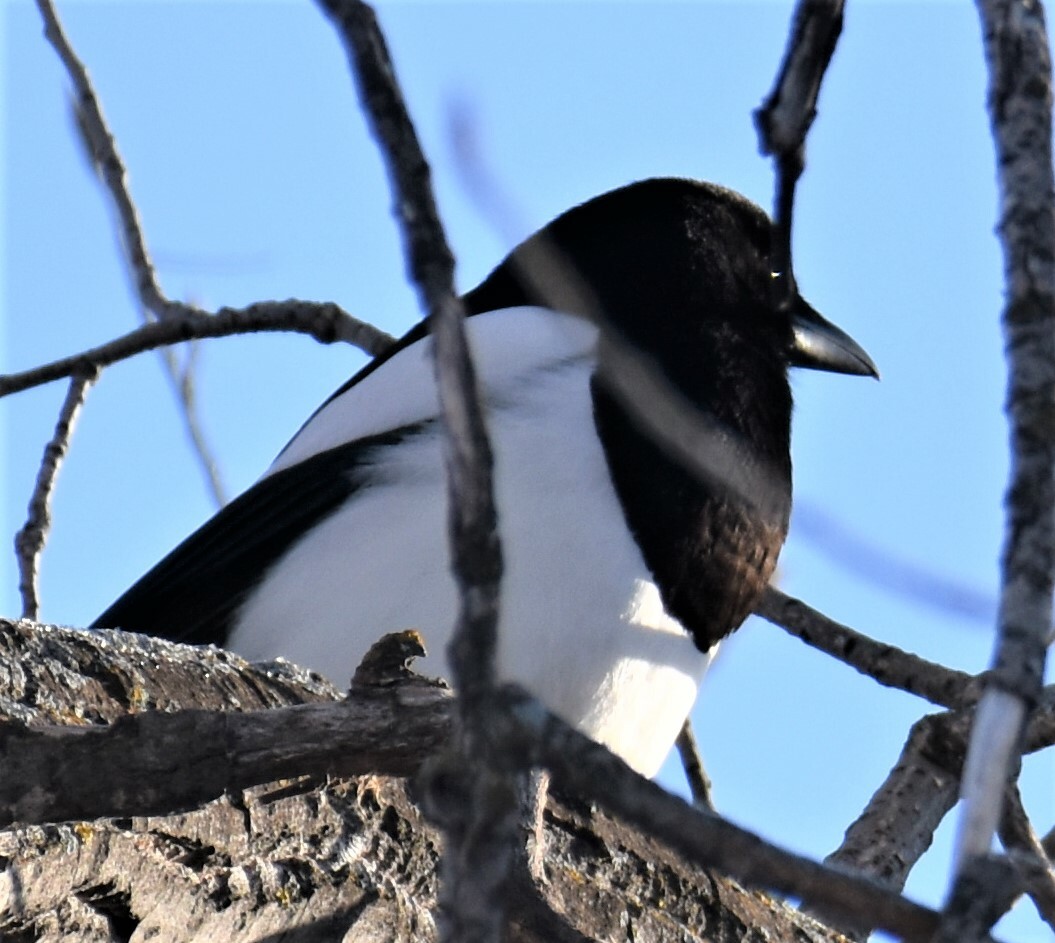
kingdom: Animalia
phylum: Chordata
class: Aves
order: Passeriformes
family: Corvidae
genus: Pica
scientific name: Pica hudsonia
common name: Black-billed magpie
